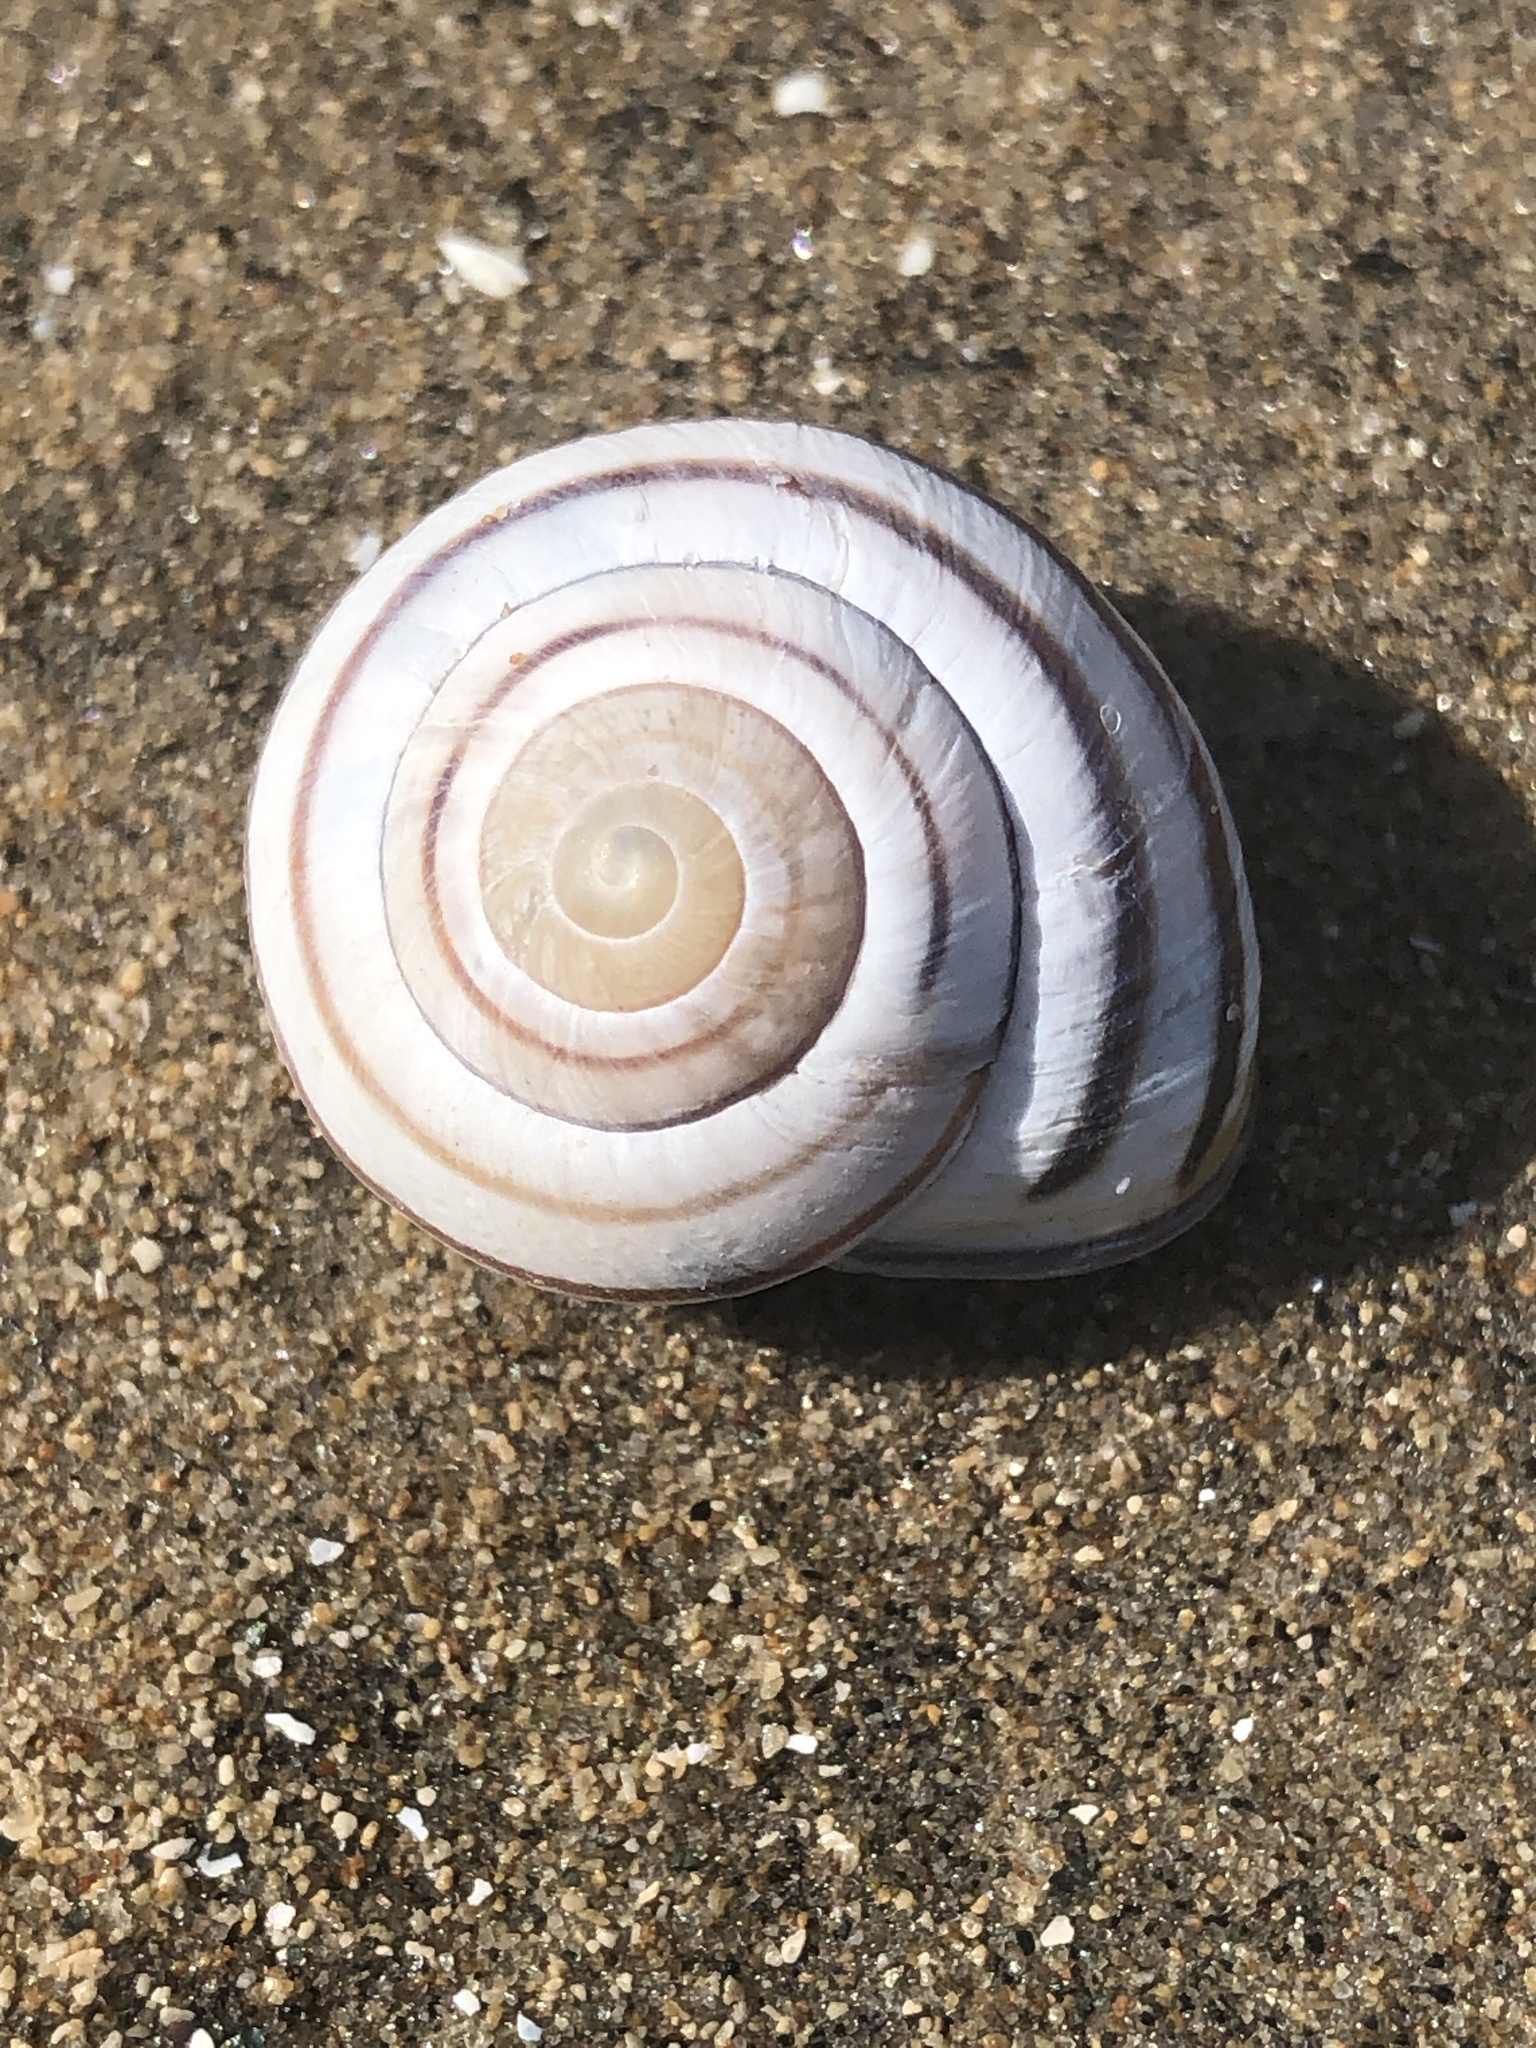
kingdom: Animalia
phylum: Mollusca
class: Gastropoda
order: Stylommatophora
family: Helicidae
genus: Cepaea
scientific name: Cepaea nemoralis
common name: Grovesnail
